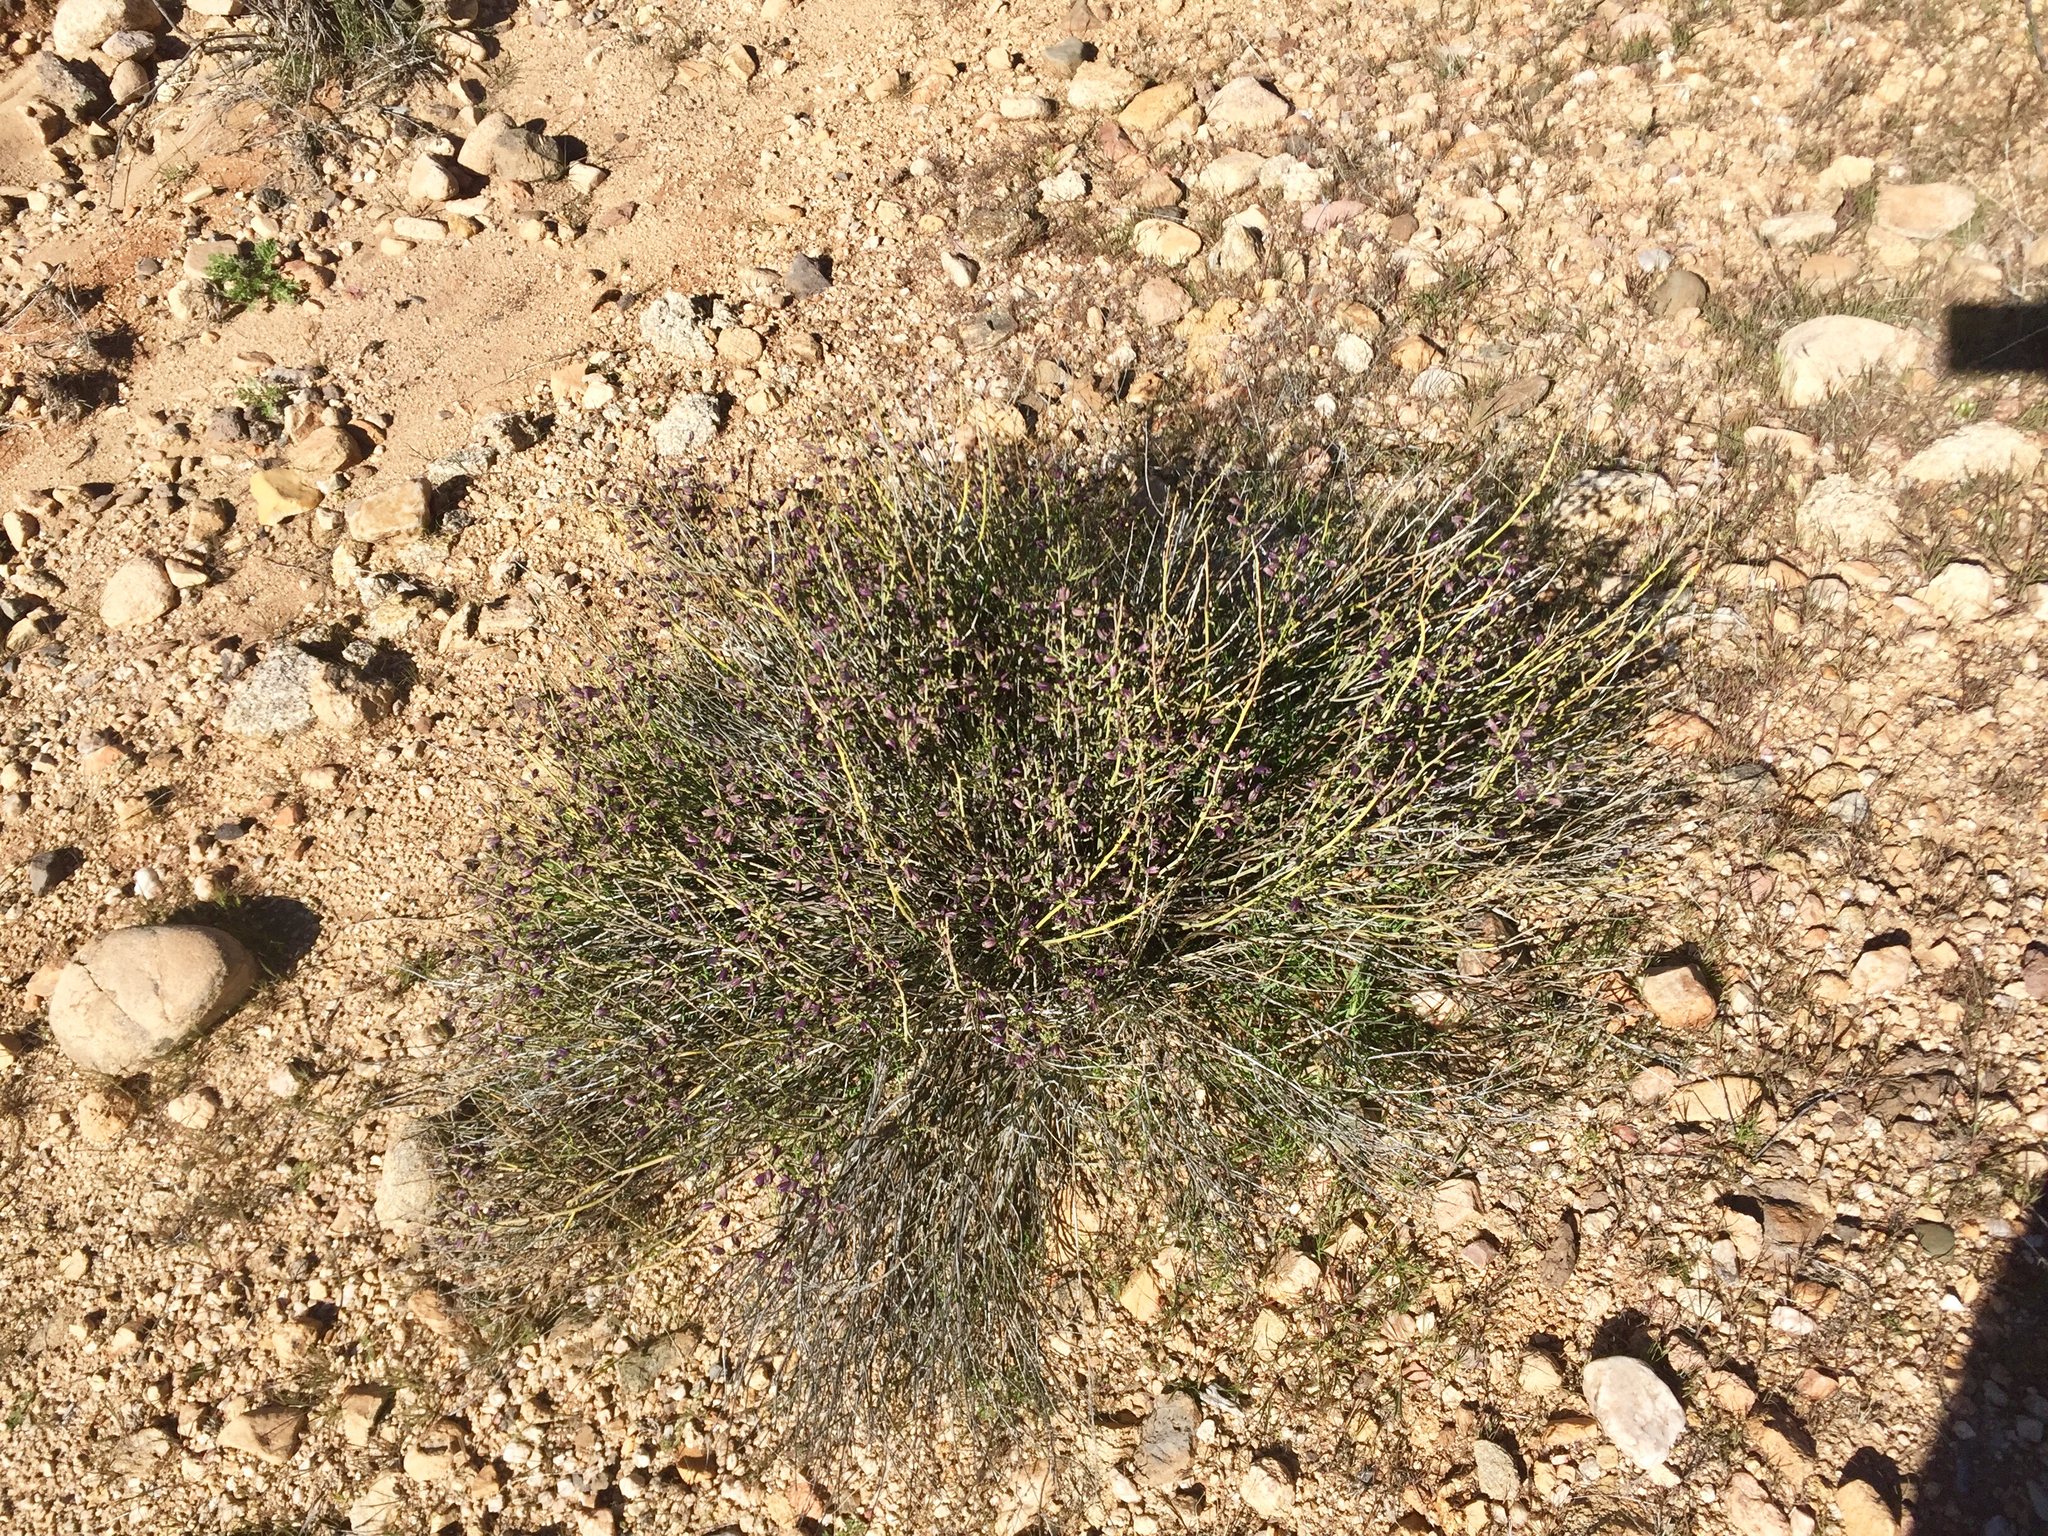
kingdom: Plantae
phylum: Tracheophyta
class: Magnoliopsida
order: Sapindales
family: Rutaceae
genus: Thamnosma
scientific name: Thamnosma montana
